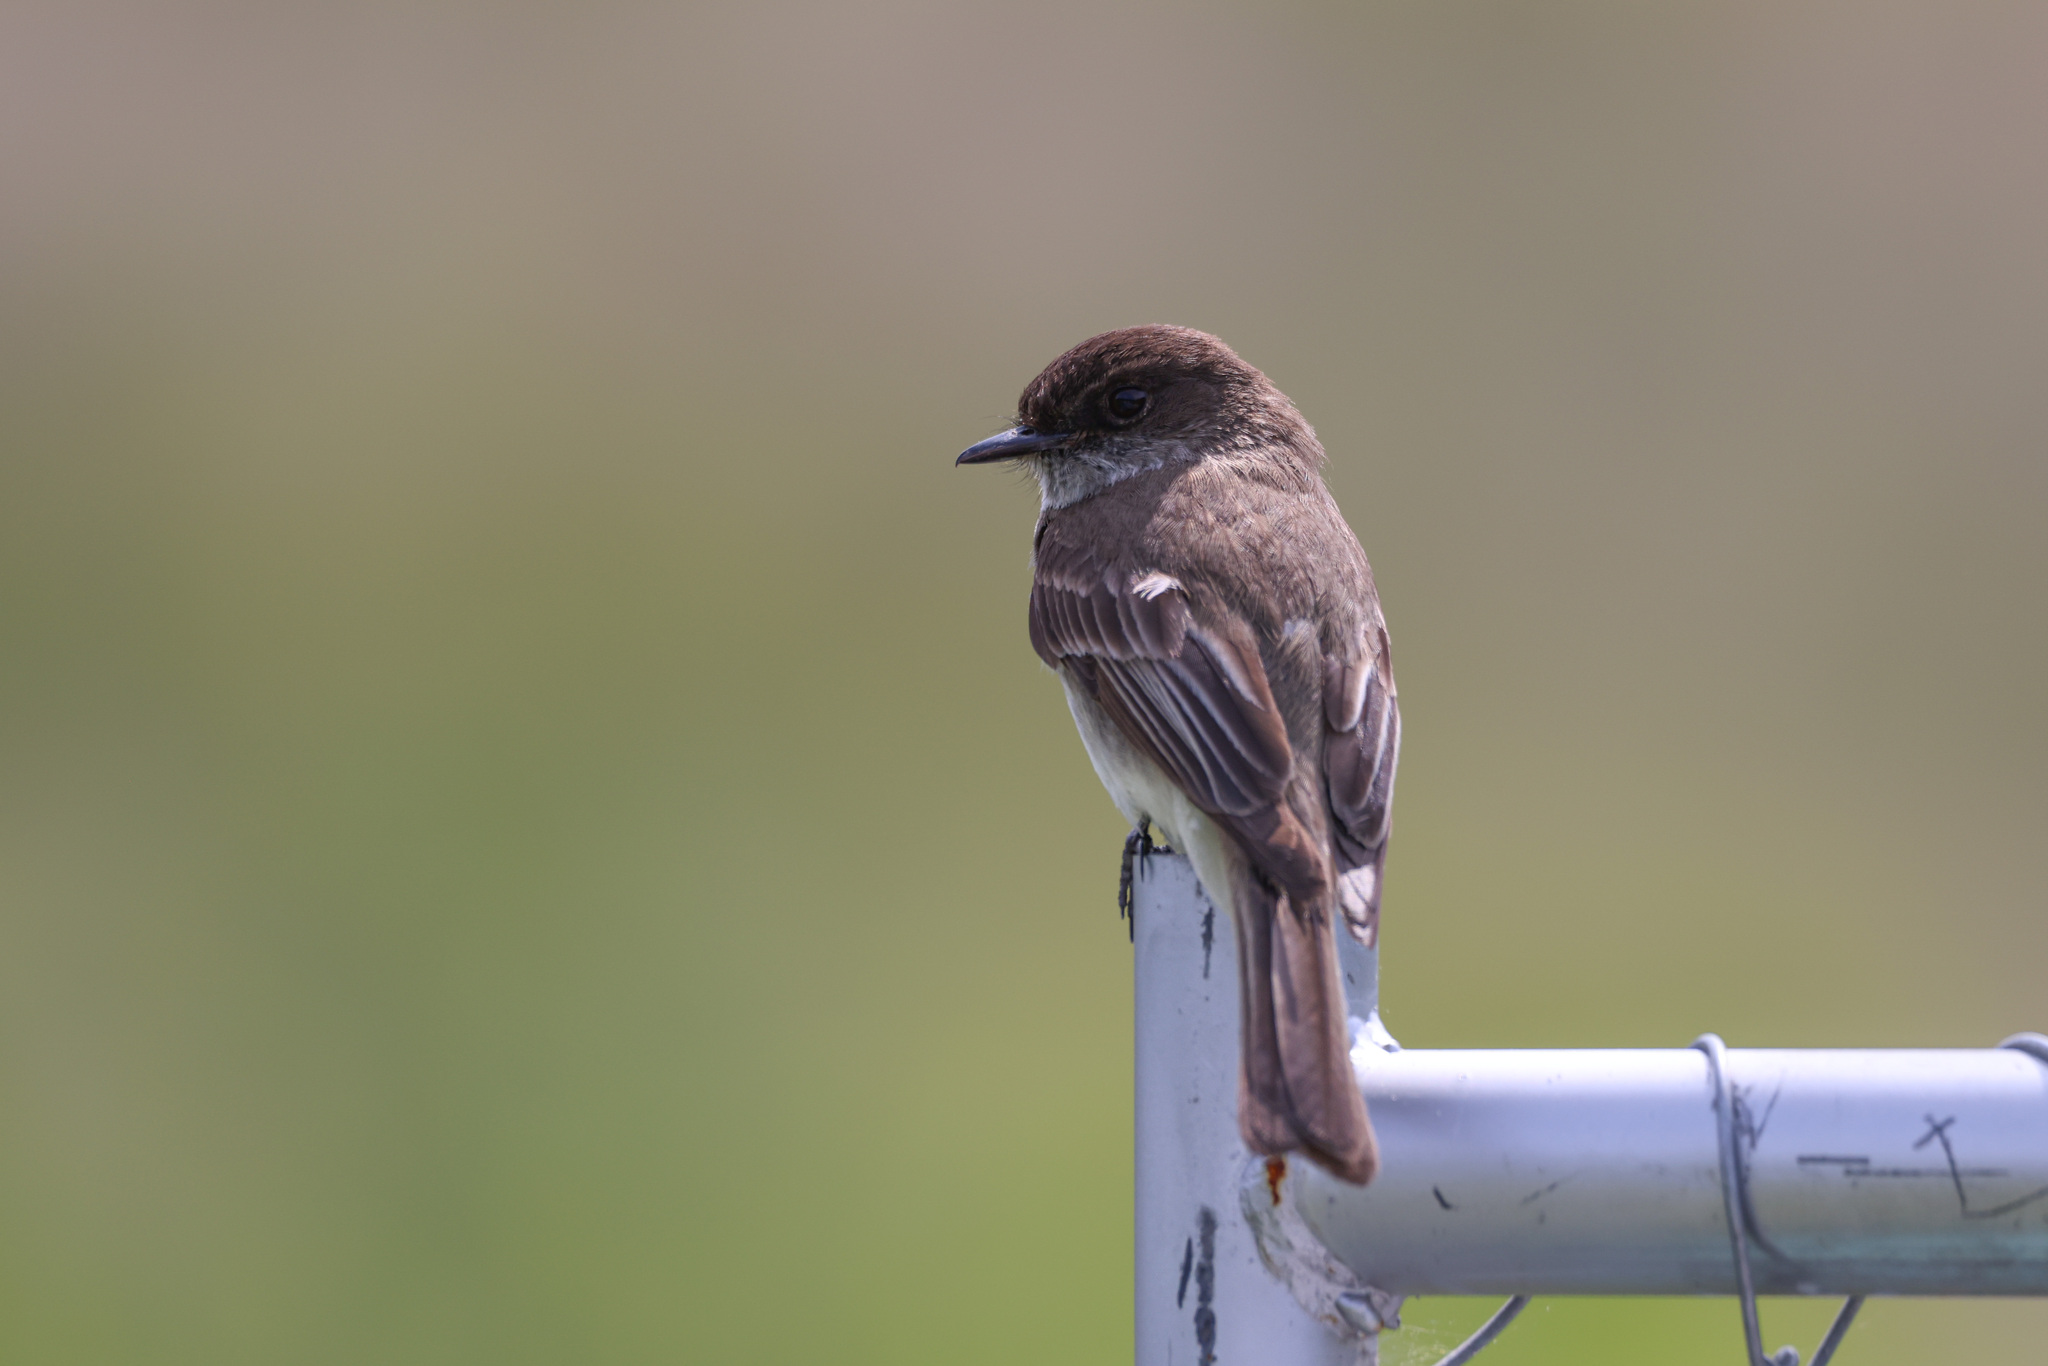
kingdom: Animalia
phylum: Chordata
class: Aves
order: Passeriformes
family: Tyrannidae
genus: Sayornis
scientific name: Sayornis phoebe
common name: Eastern phoebe
